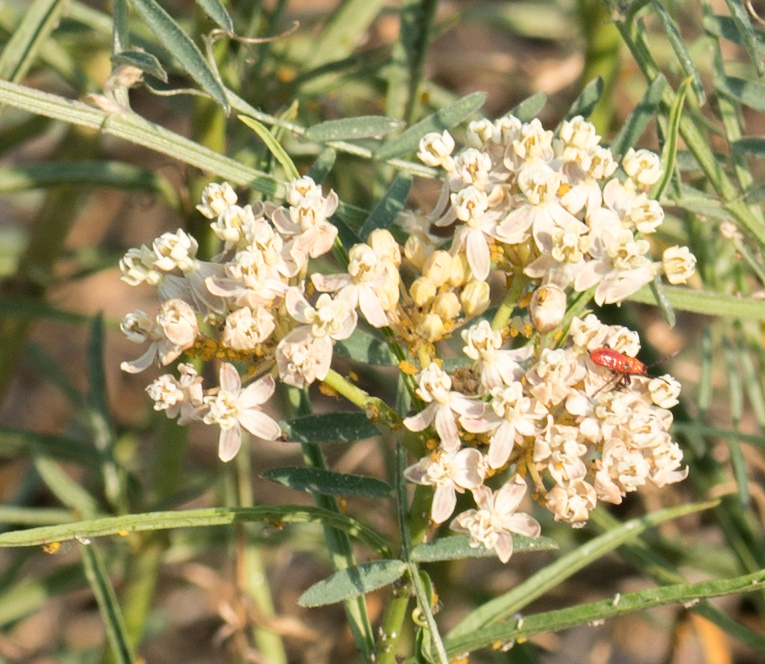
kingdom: Animalia
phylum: Arthropoda
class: Insecta
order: Hemiptera
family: Aphididae
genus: Aphis
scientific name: Aphis nerii
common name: Oleander aphid
